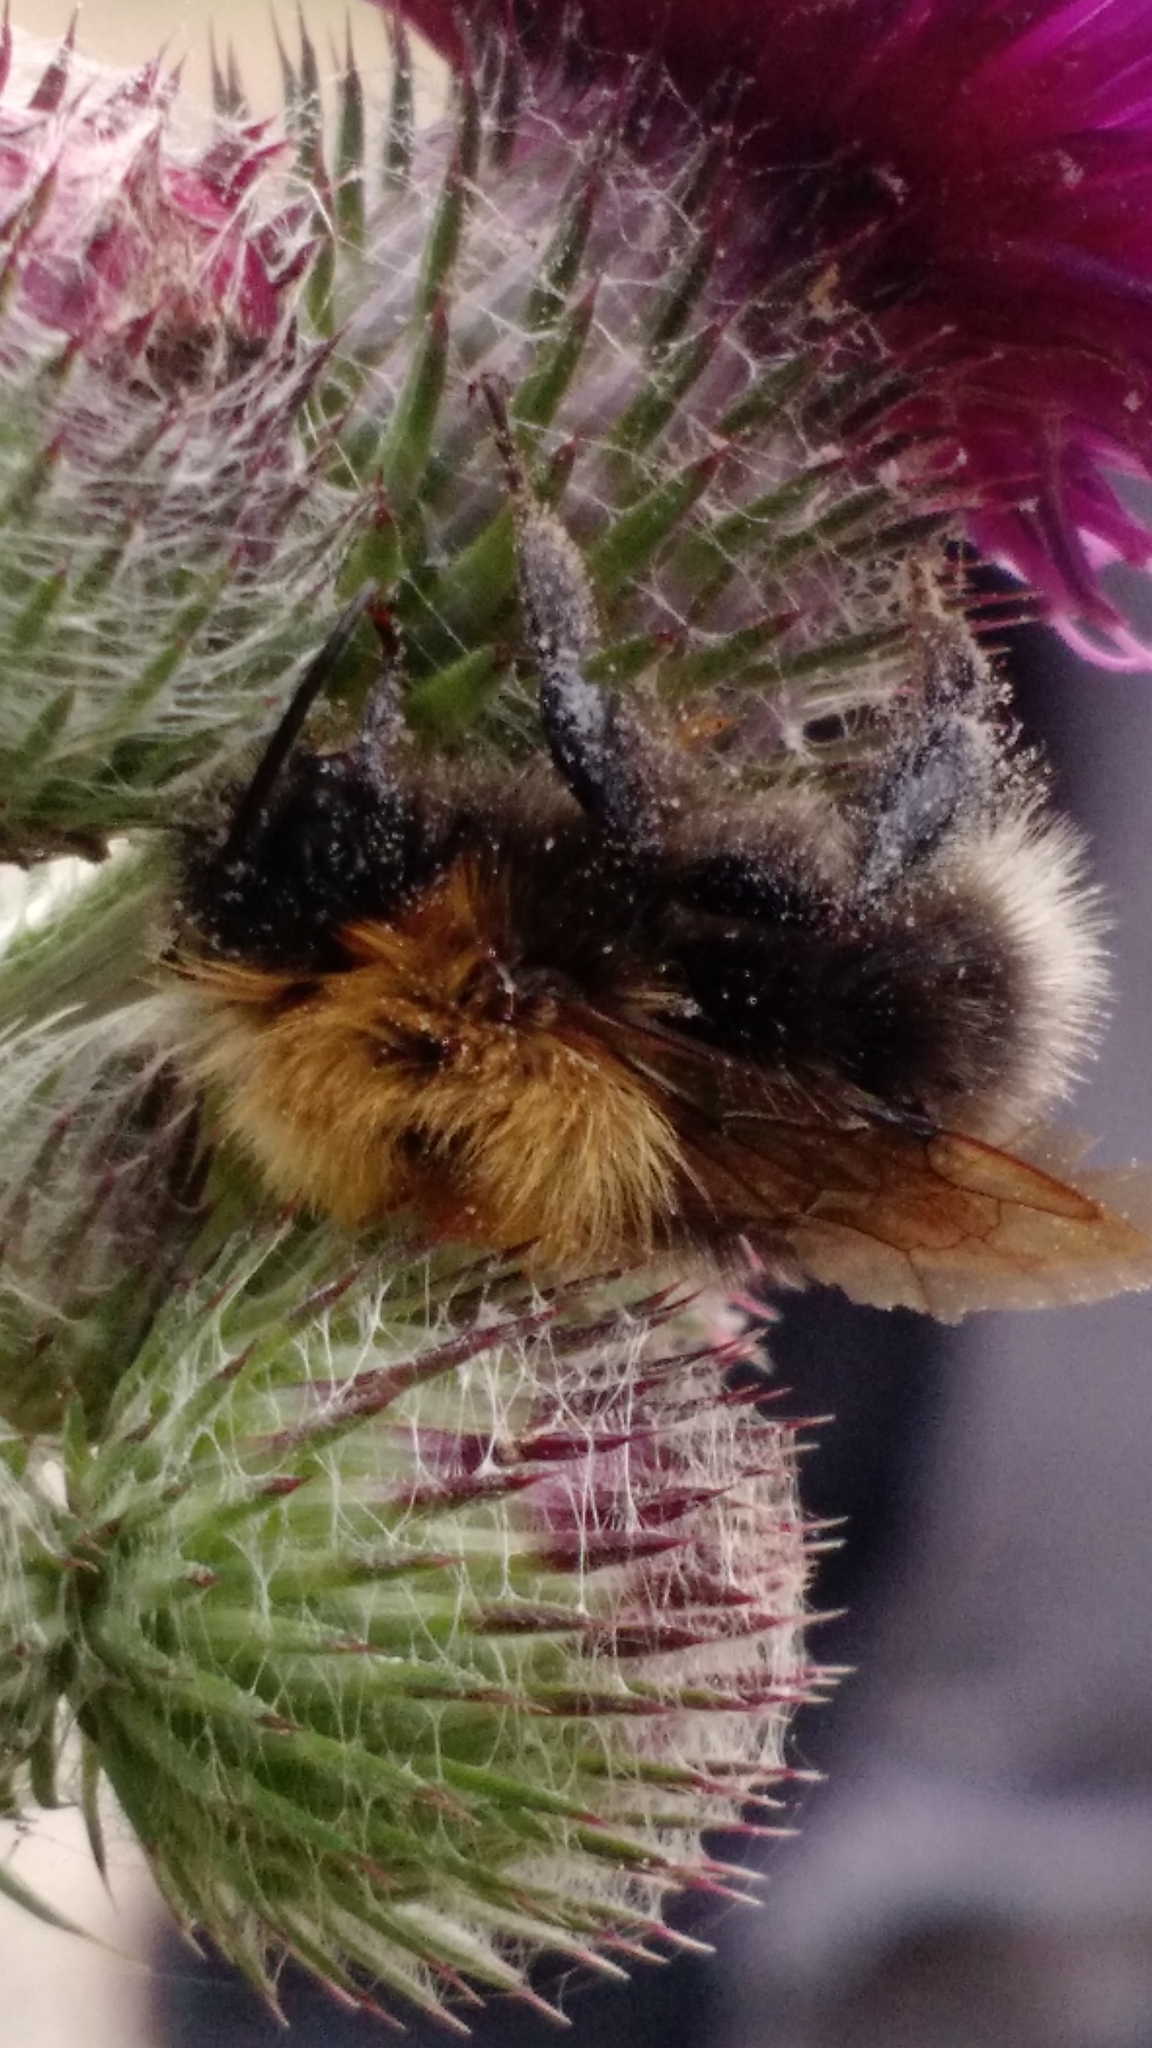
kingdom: Animalia
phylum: Arthropoda
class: Insecta
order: Hymenoptera
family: Apidae
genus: Bombus
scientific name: Bombus hypnorum
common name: New garden bumblebee
